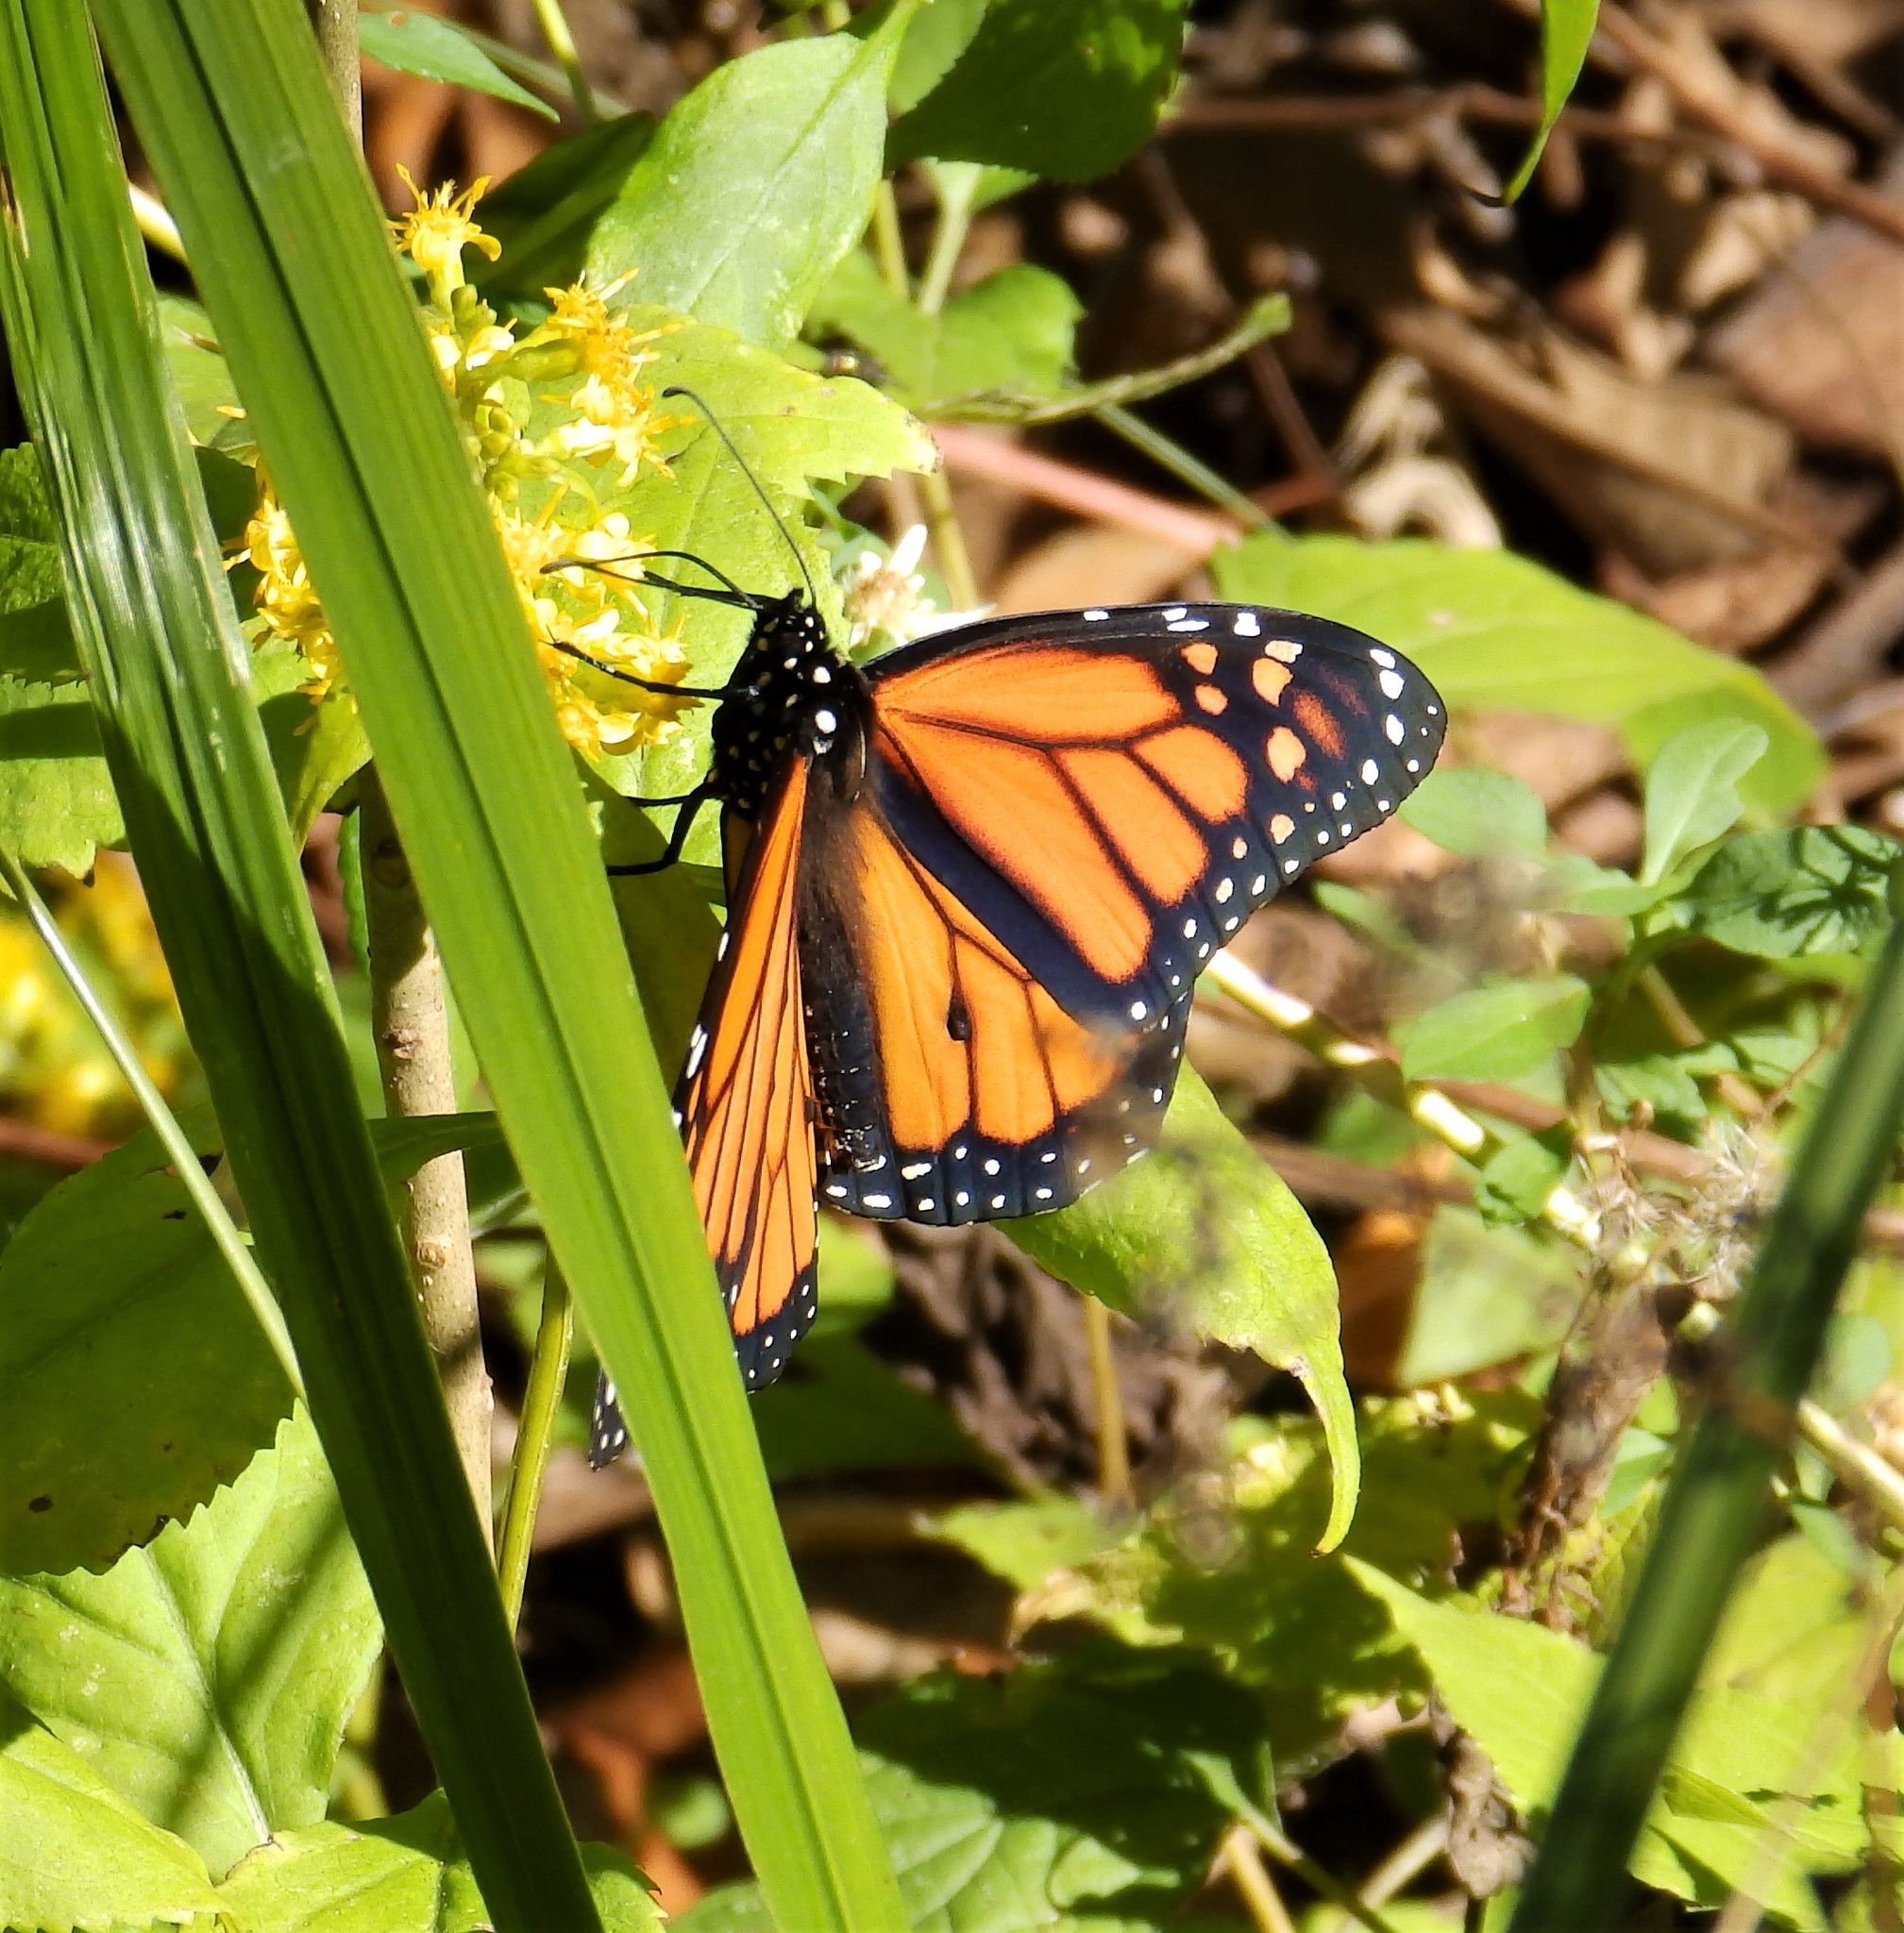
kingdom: Animalia
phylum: Arthropoda
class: Insecta
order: Lepidoptera
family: Nymphalidae
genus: Danaus
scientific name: Danaus plexippus
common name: Monarch
